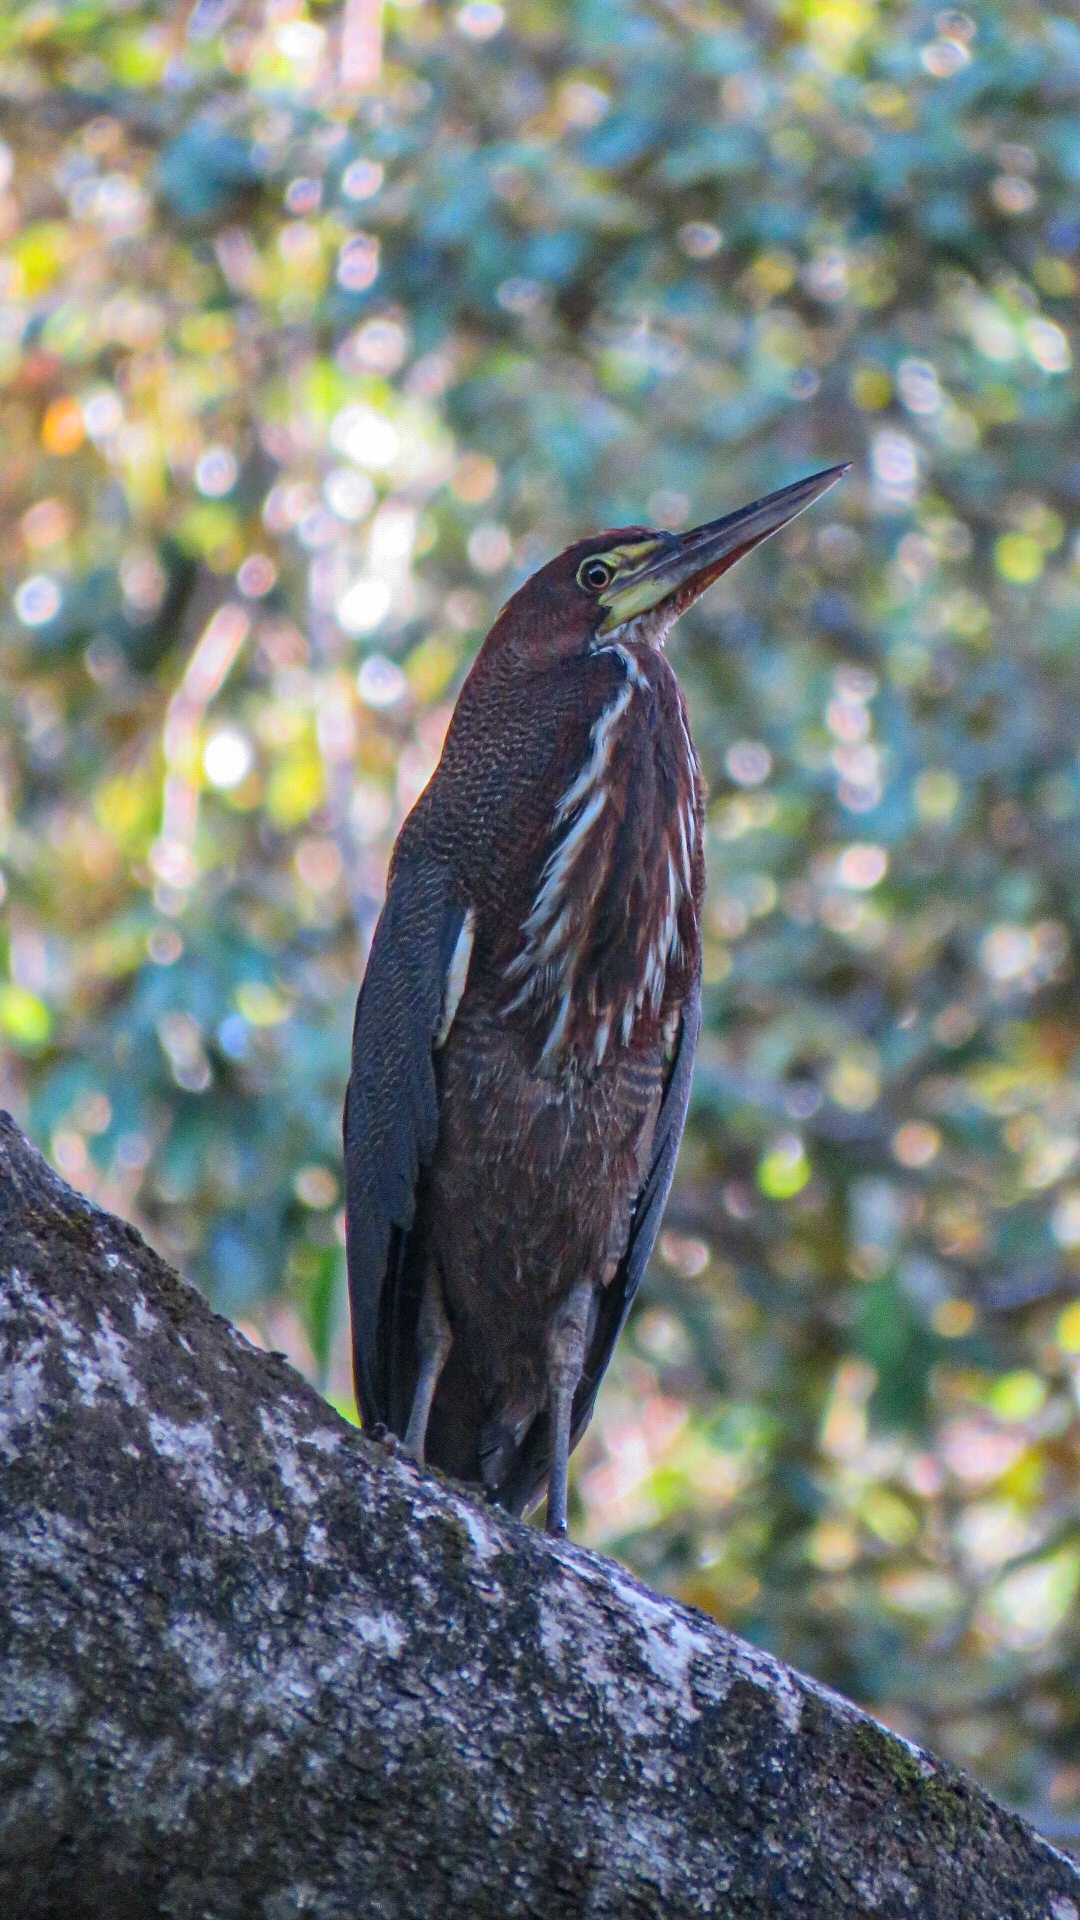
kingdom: Animalia
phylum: Chordata
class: Aves
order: Pelecaniformes
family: Ardeidae
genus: Tigrisoma
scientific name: Tigrisoma lineatum
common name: Rufescent tiger-heron
